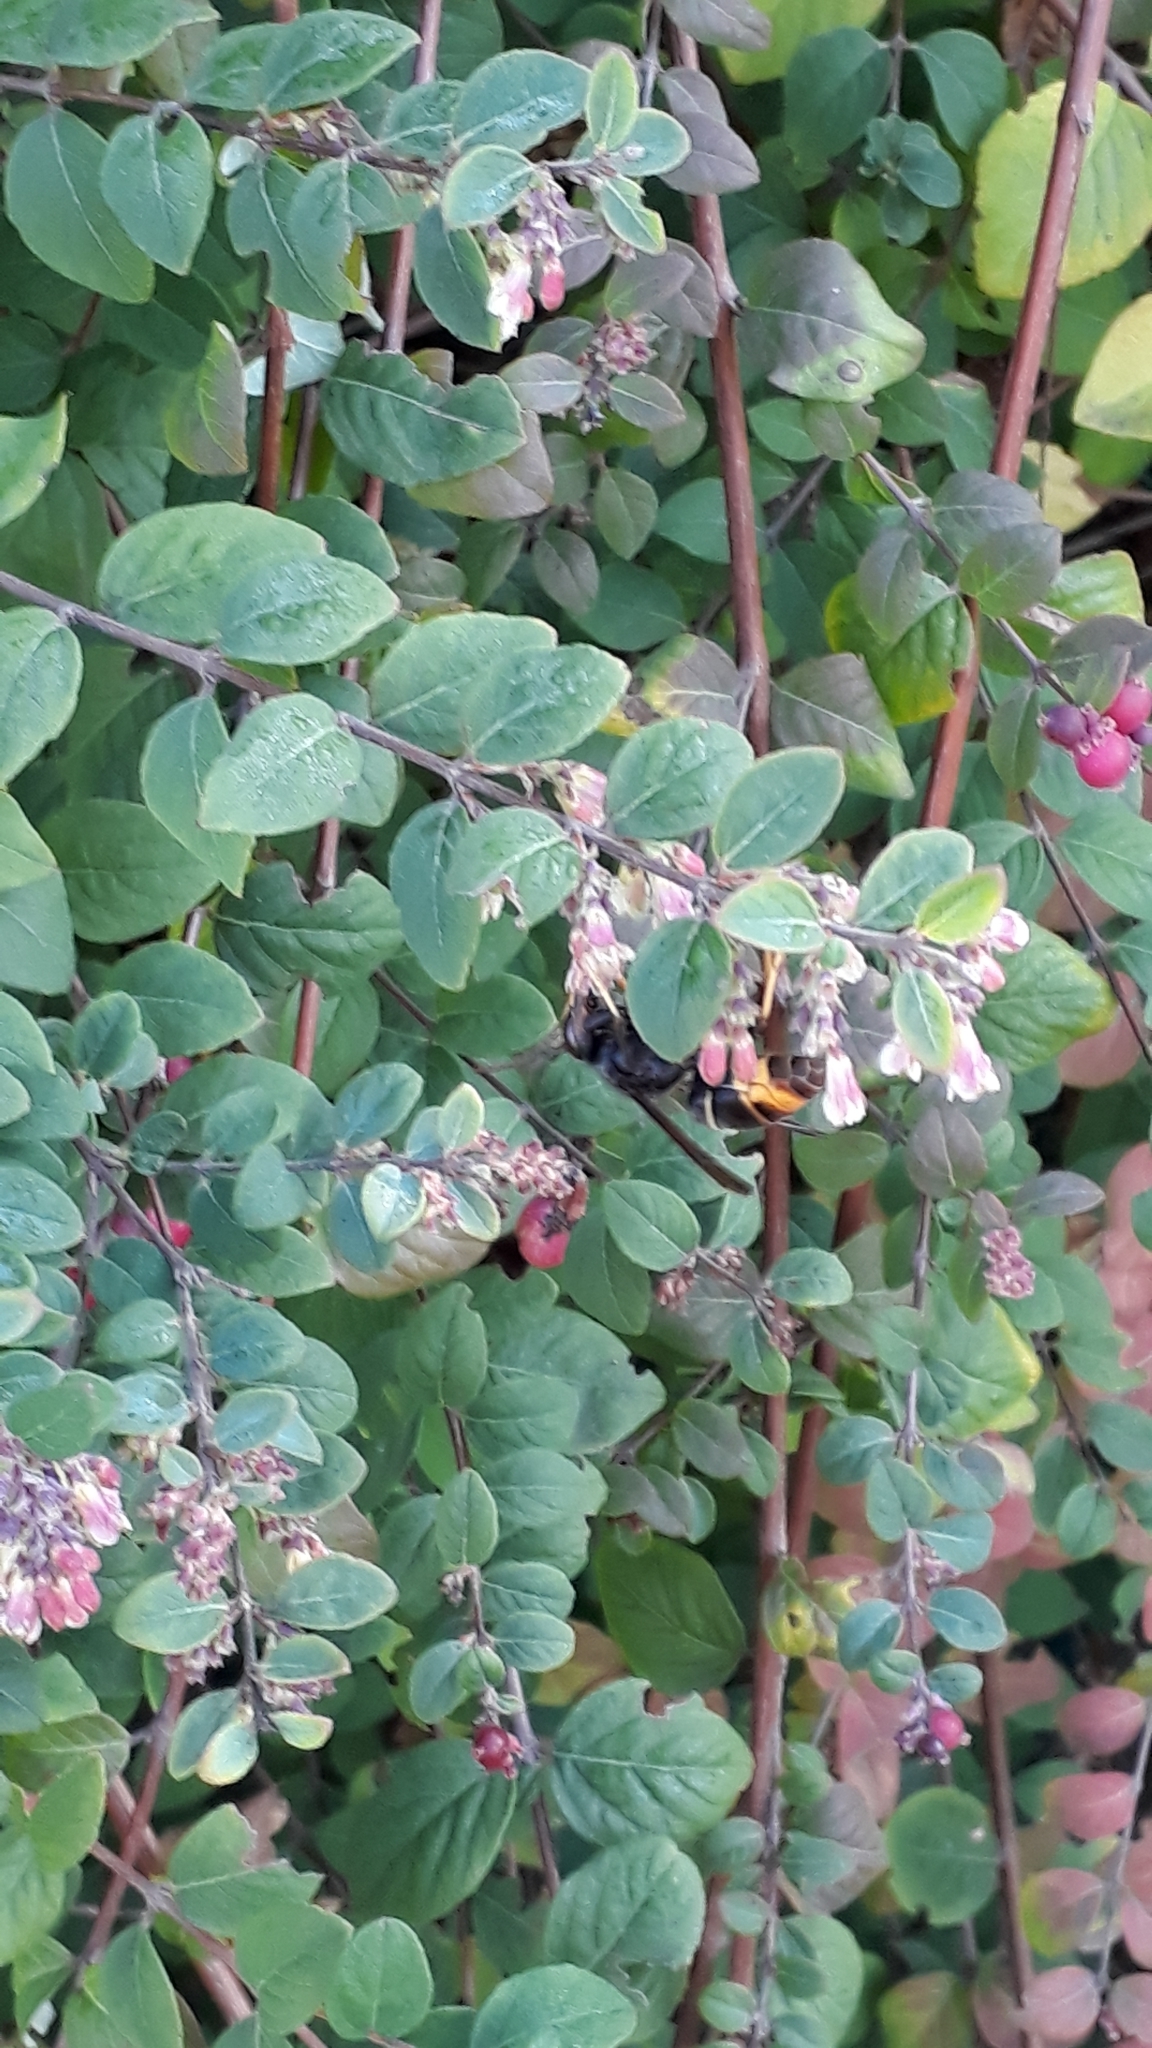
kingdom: Animalia
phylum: Arthropoda
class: Insecta
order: Hymenoptera
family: Vespidae
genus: Vespa
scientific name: Vespa velutina
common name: Asian hornet
